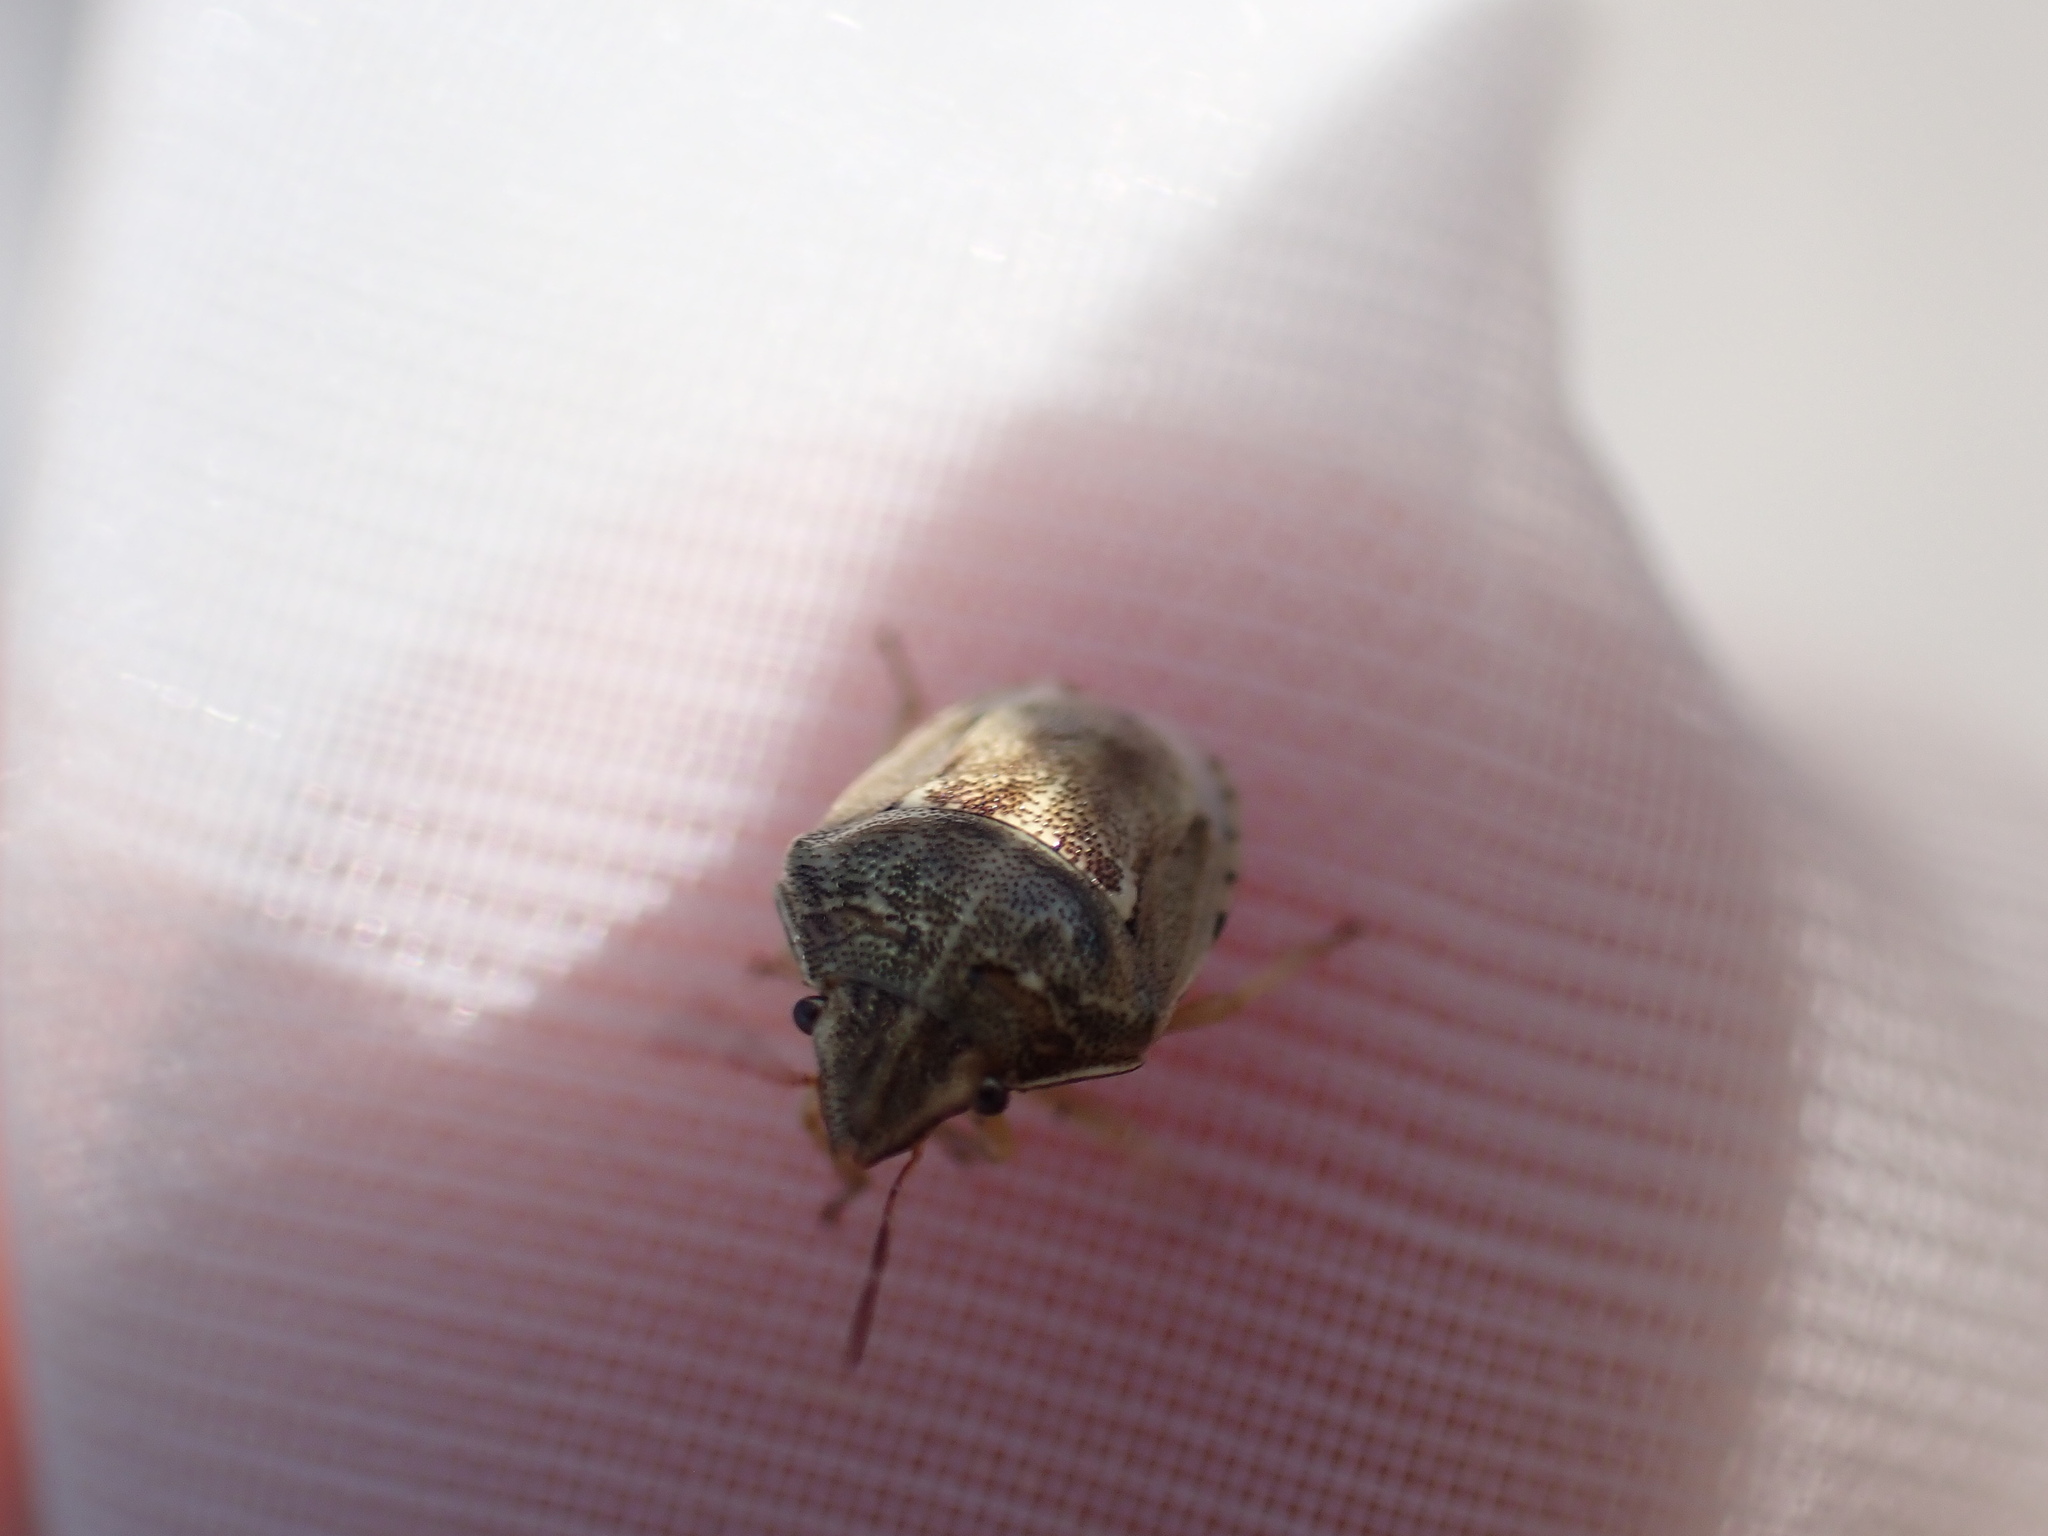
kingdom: Animalia
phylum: Arthropoda
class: Insecta
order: Hemiptera
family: Pentatomidae
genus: Neottiglossa
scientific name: Neottiglossa leporina
